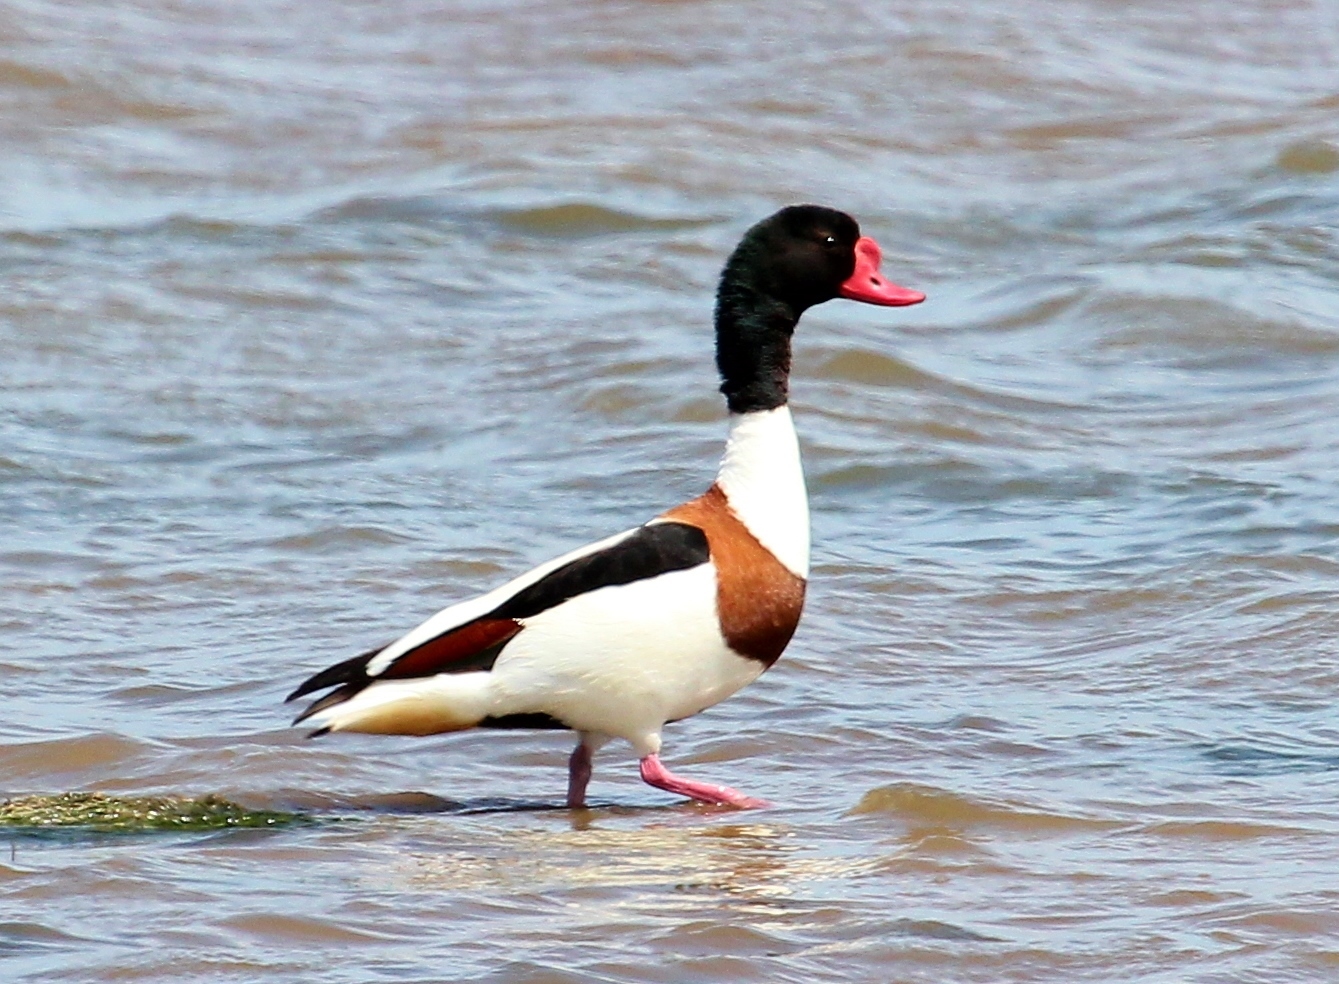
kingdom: Animalia
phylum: Chordata
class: Aves
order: Anseriformes
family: Anatidae
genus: Tadorna
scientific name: Tadorna tadorna
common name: Common shelduck
